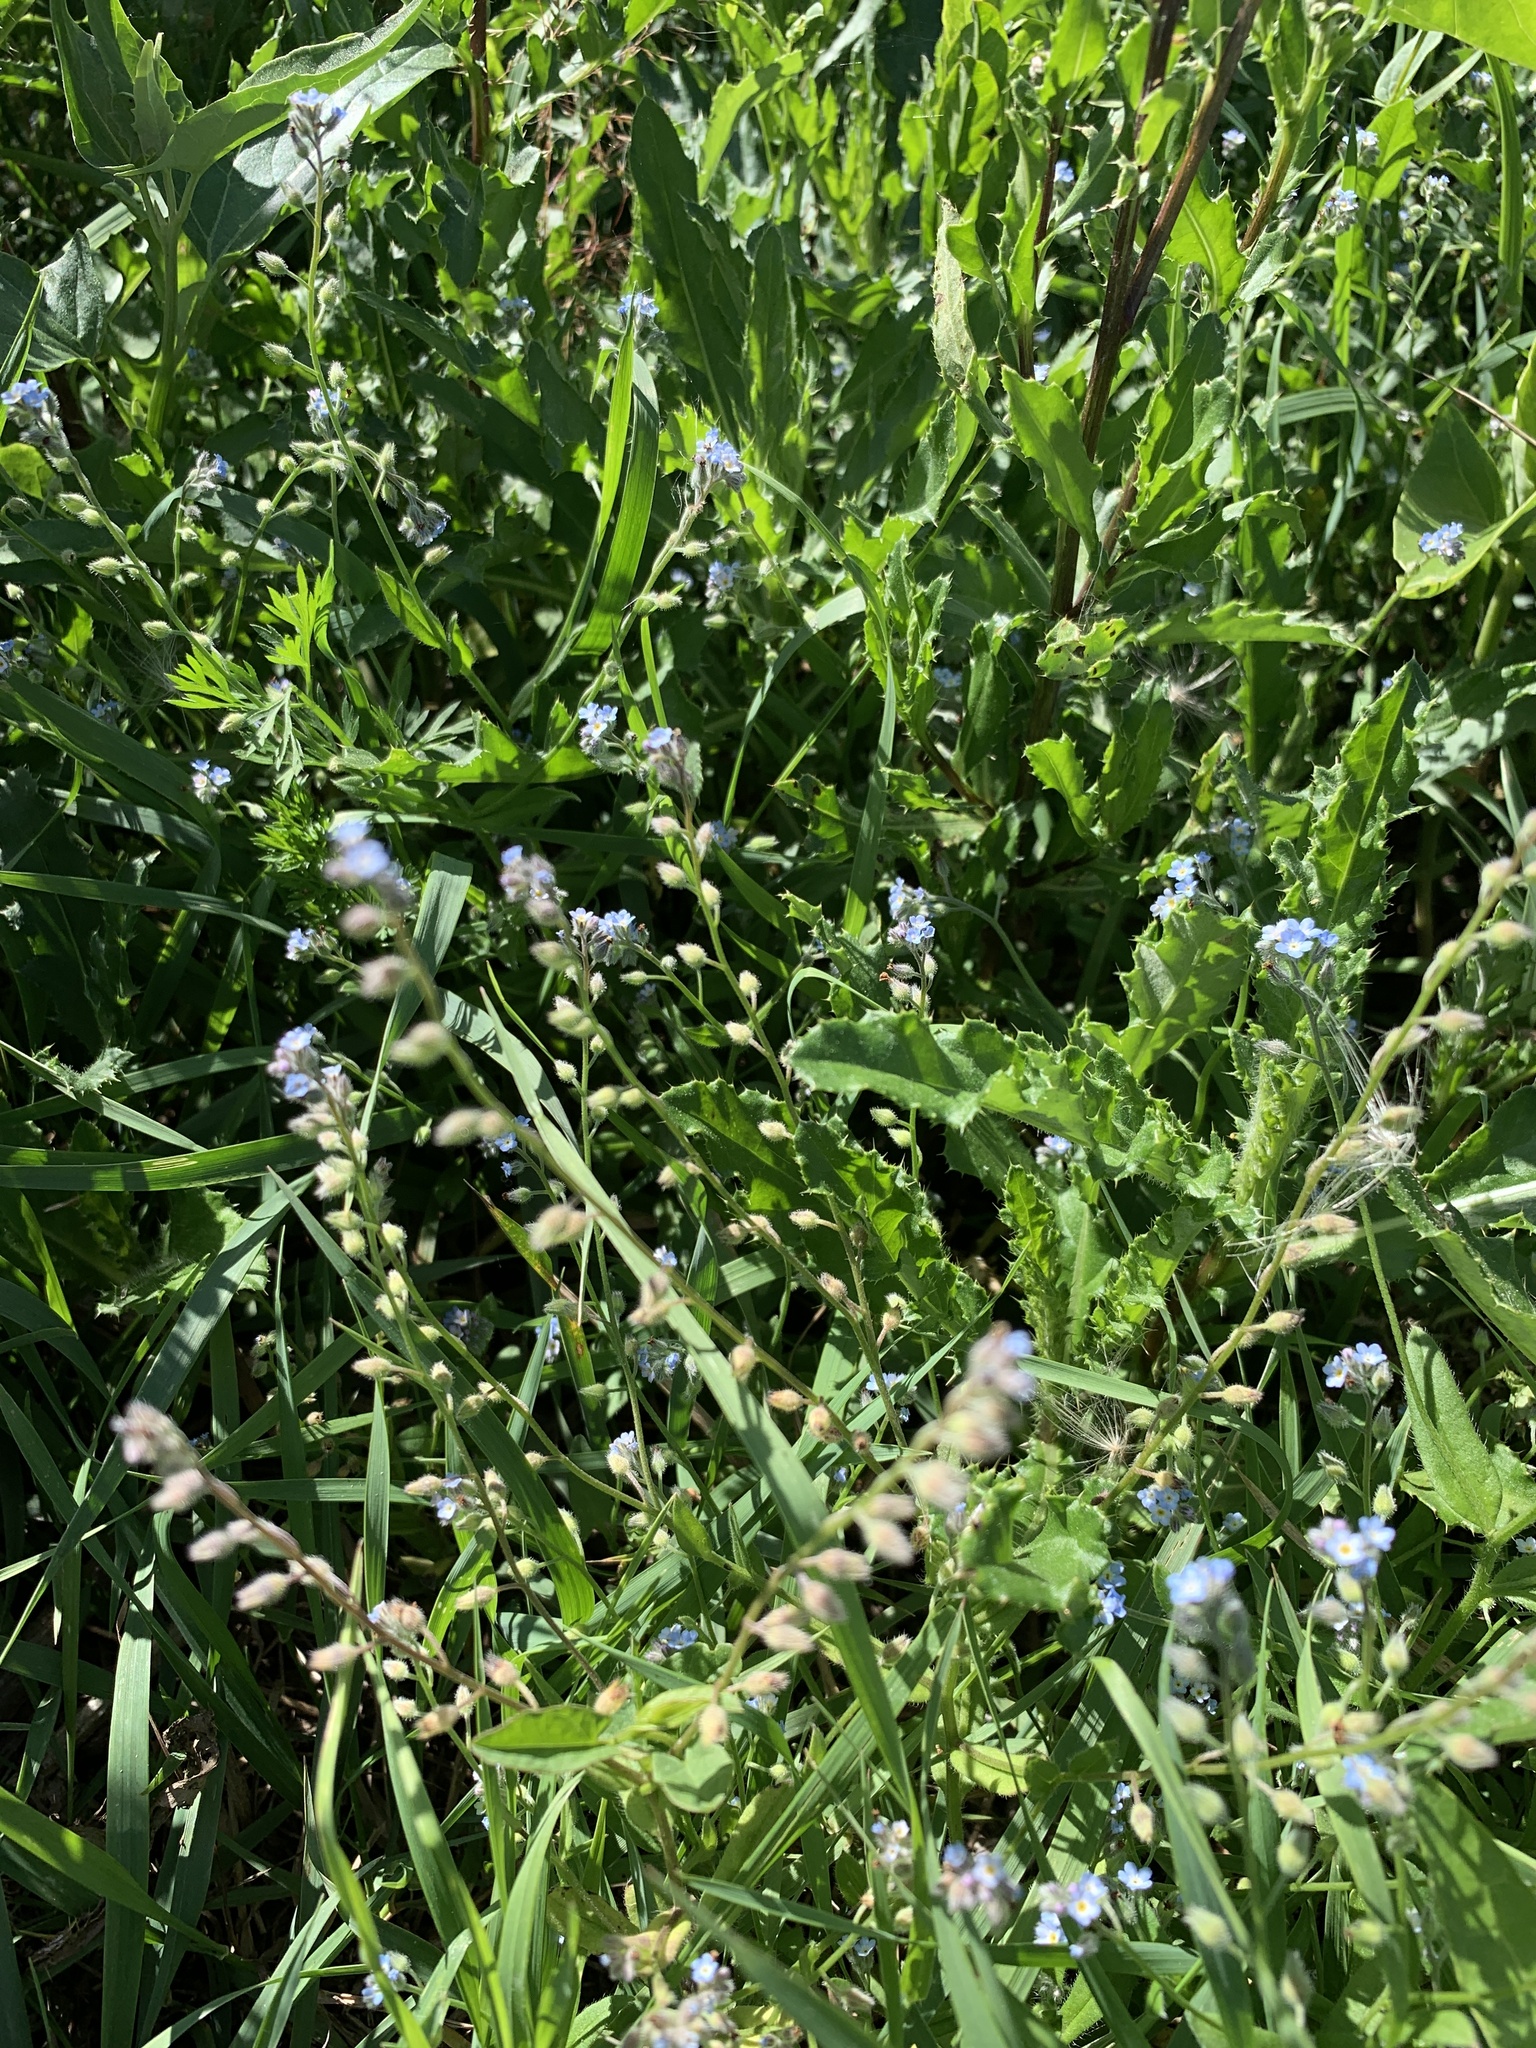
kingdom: Plantae
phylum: Tracheophyta
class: Magnoliopsida
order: Boraginales
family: Boraginaceae
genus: Myosotis
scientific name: Myosotis arvensis
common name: Field forget-me-not
